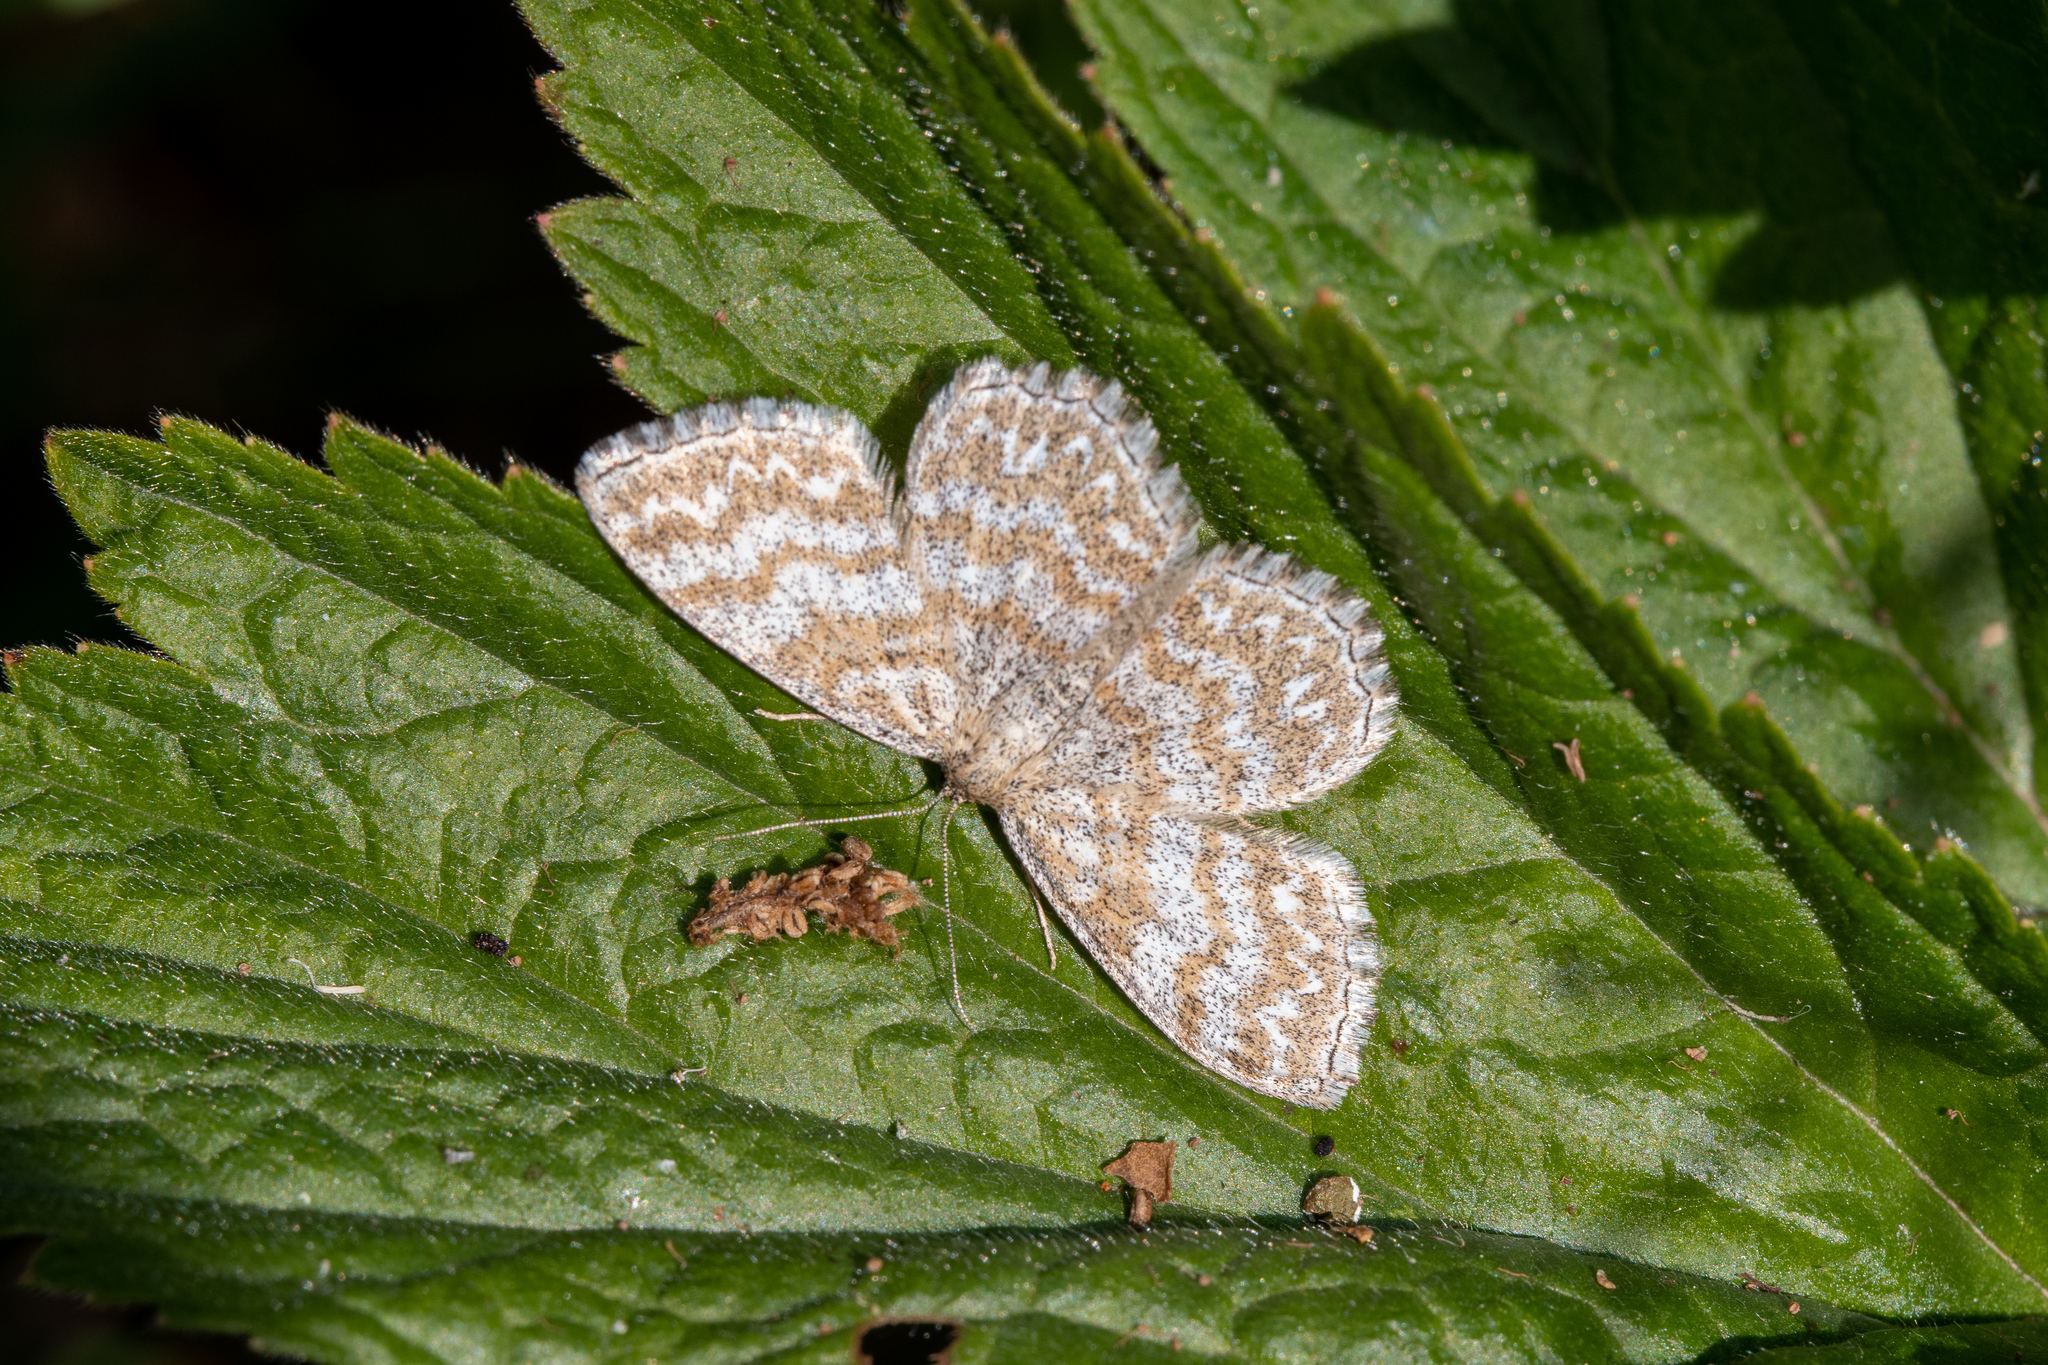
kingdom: Animalia
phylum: Arthropoda
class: Insecta
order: Lepidoptera
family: Geometridae
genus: Scopula
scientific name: Scopula immorata
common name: Lewes wave
